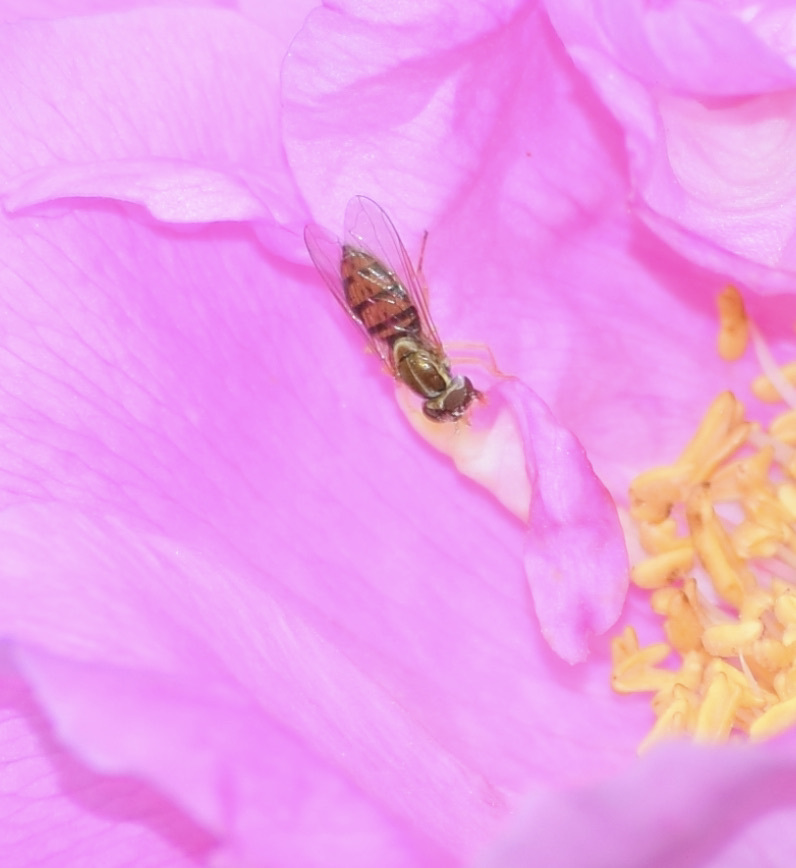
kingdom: Animalia
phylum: Arthropoda
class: Insecta
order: Diptera
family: Syrphidae
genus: Toxomerus
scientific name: Toxomerus marginatus
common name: Syrphid fly
